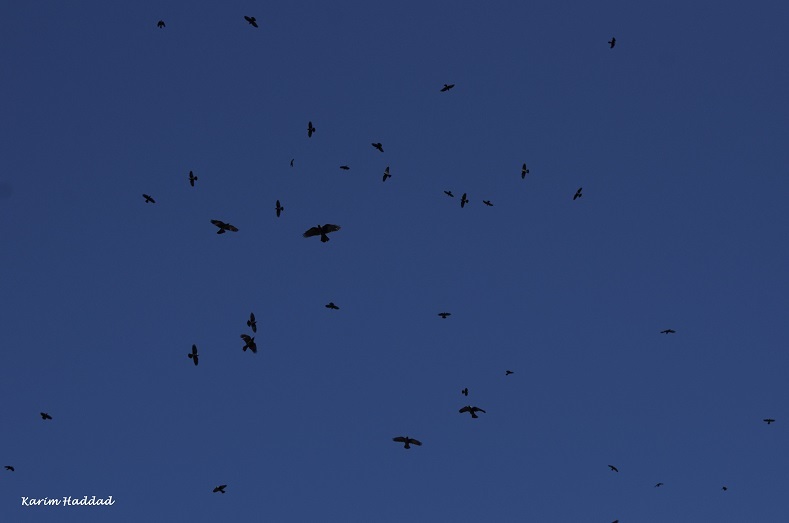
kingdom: Animalia
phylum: Chordata
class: Aves
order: Passeriformes
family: Corvidae
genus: Coloeus
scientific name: Coloeus monedula
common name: Western jackdaw
